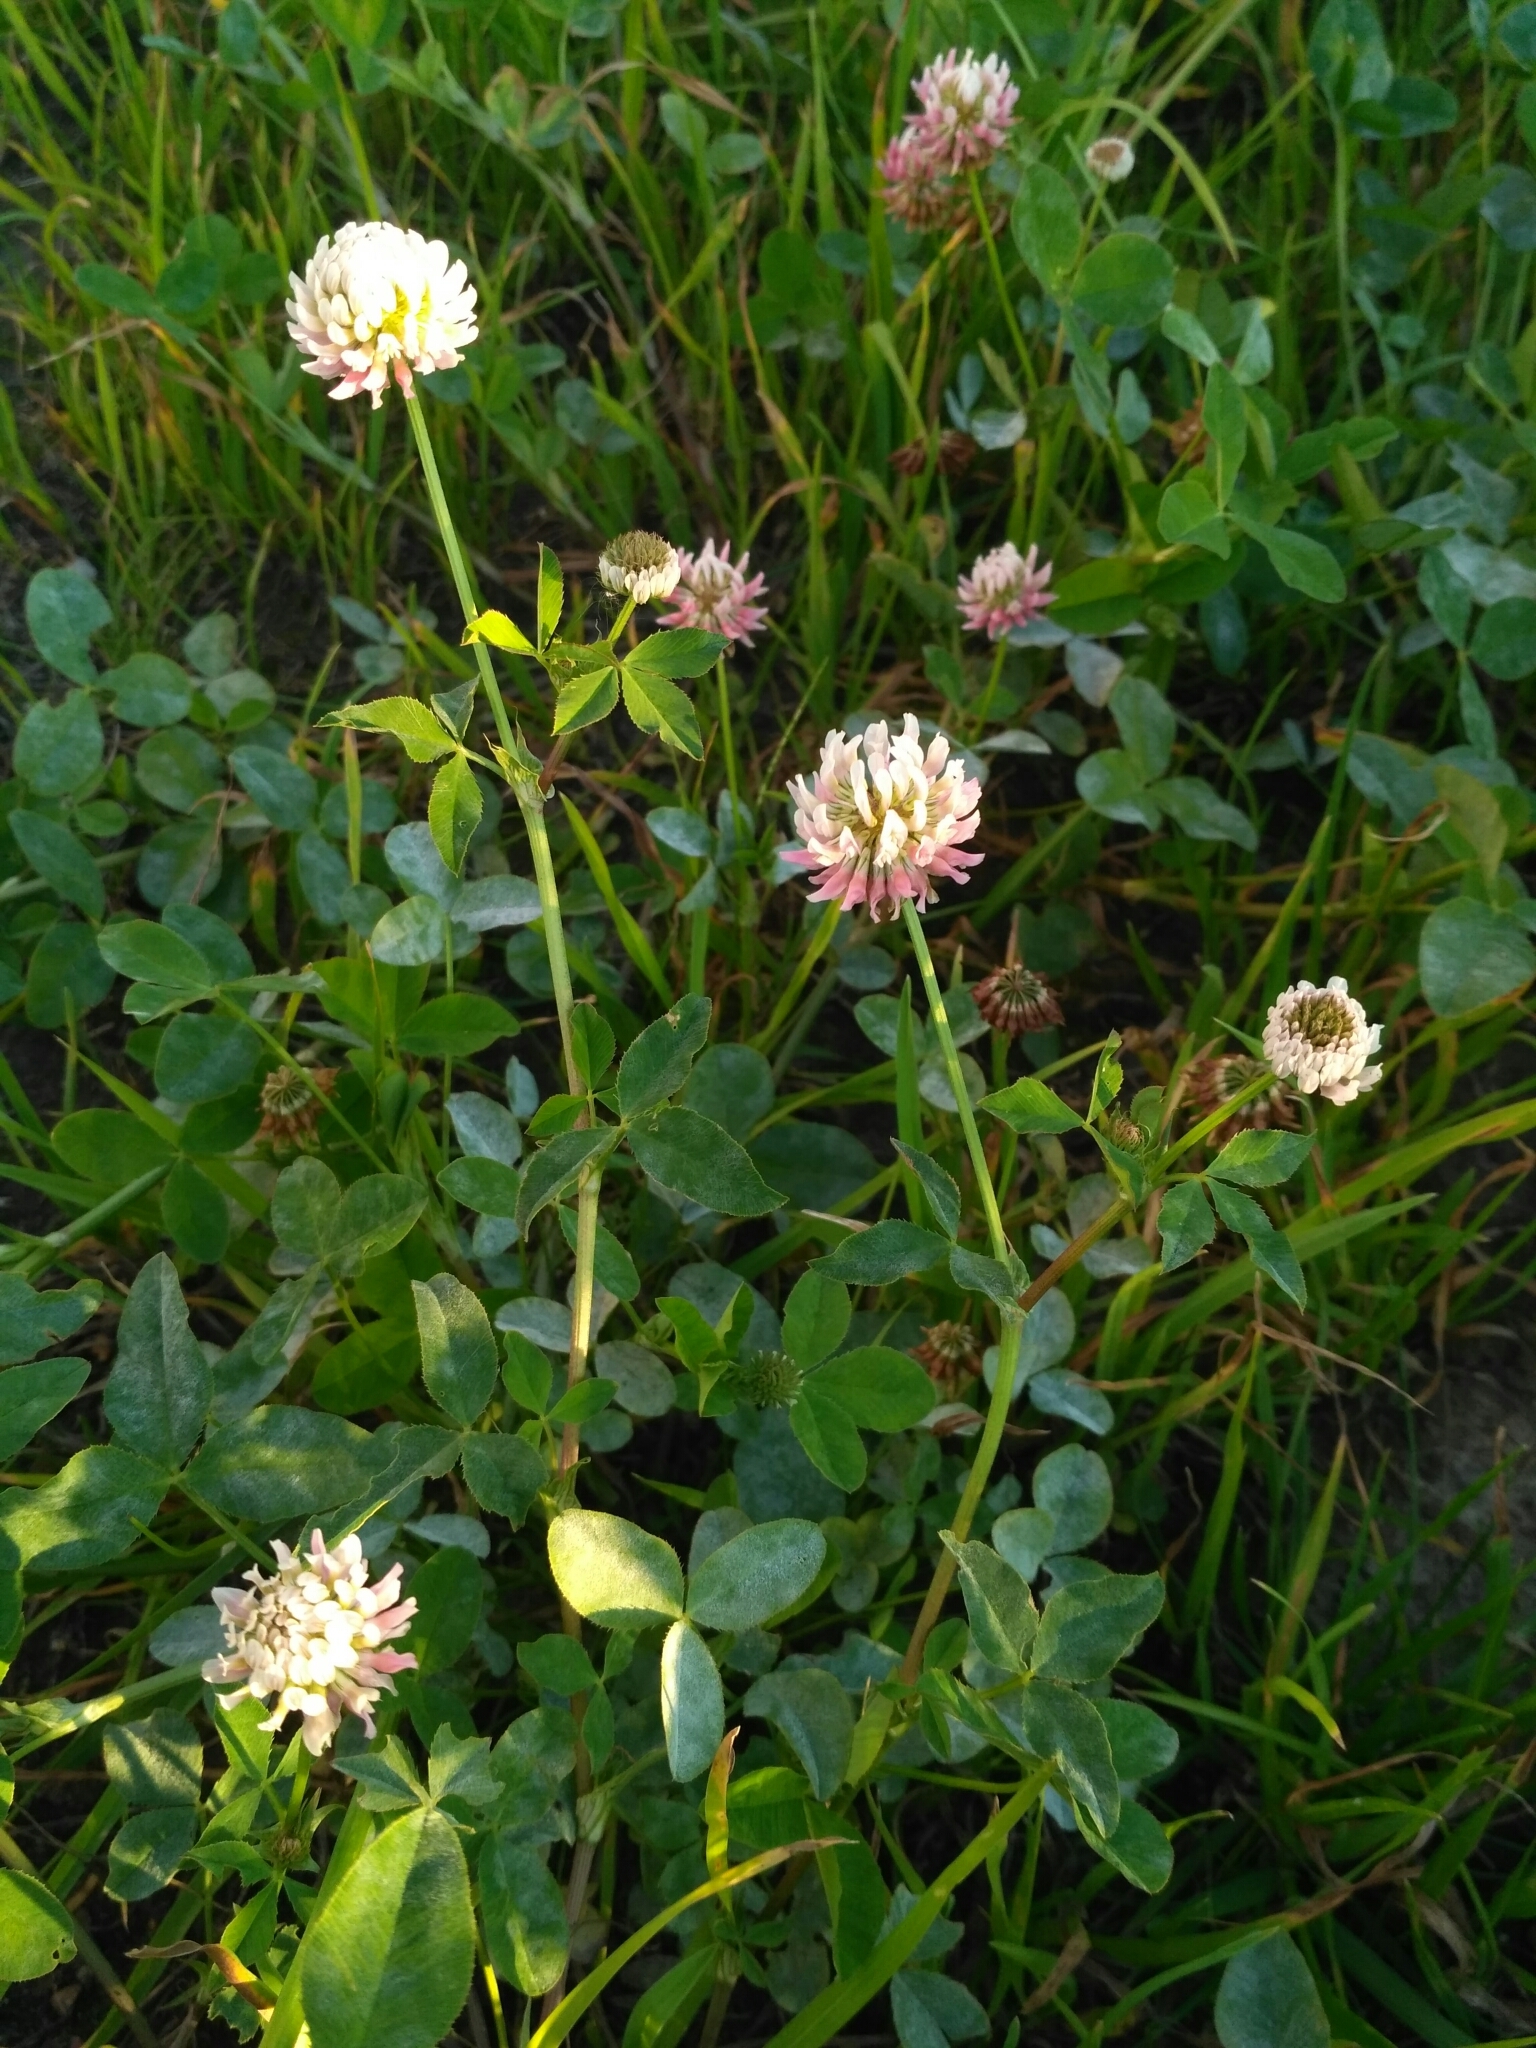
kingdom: Plantae
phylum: Tracheophyta
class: Magnoliopsida
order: Fabales
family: Fabaceae
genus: Trifolium
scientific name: Trifolium hybridum
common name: Alsike clover
